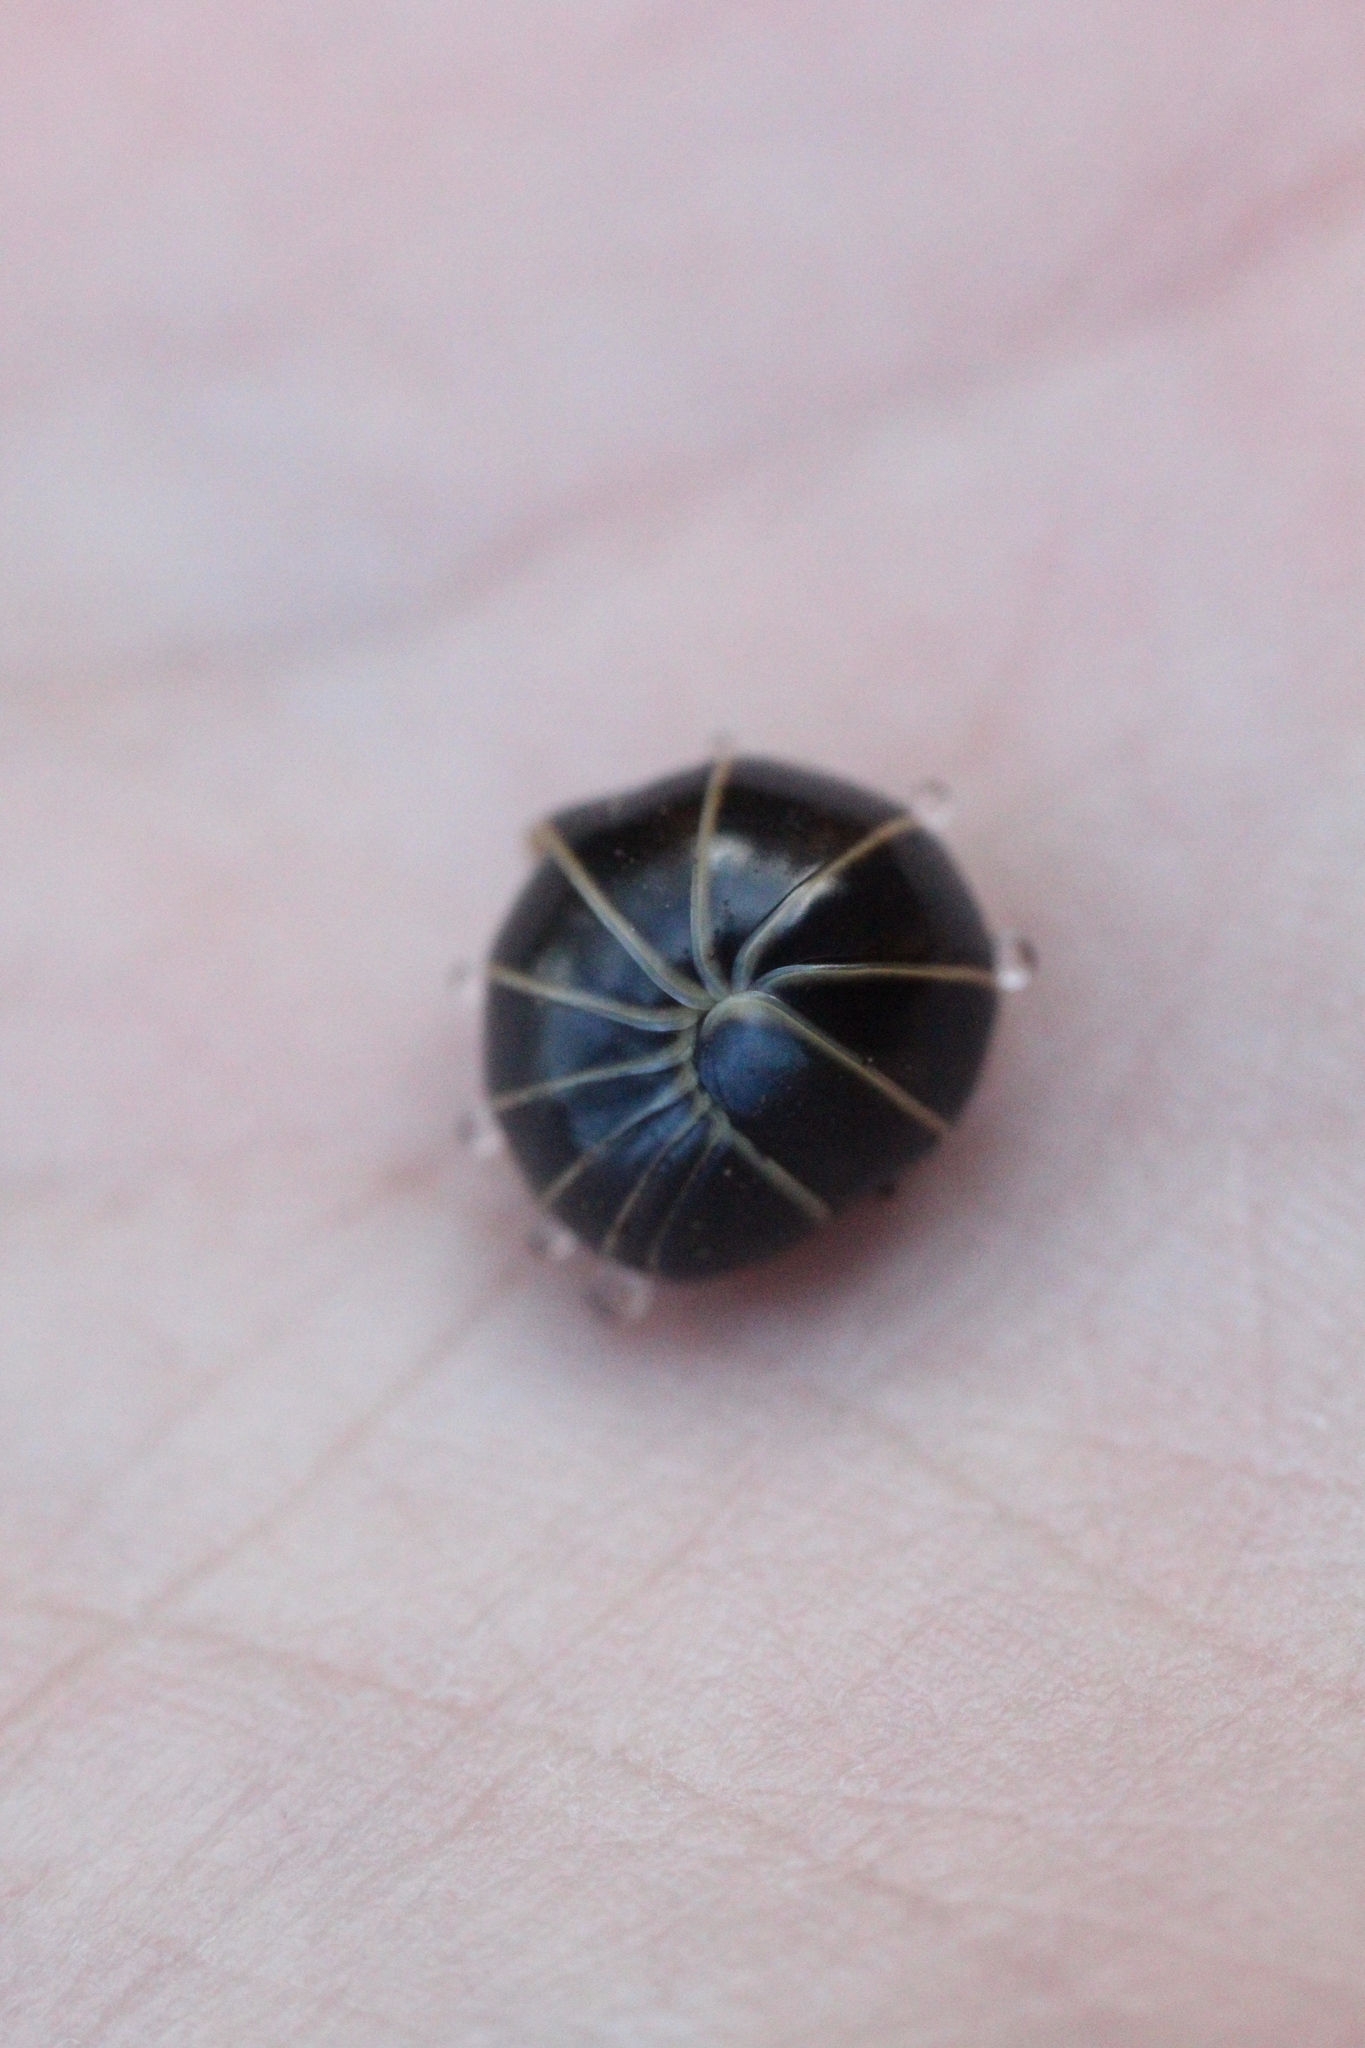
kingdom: Animalia
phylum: Arthropoda
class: Diplopoda
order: Glomerida
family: Glomeridae
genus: Glomeris
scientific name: Glomeris marginata
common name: Bordered pill millipede
